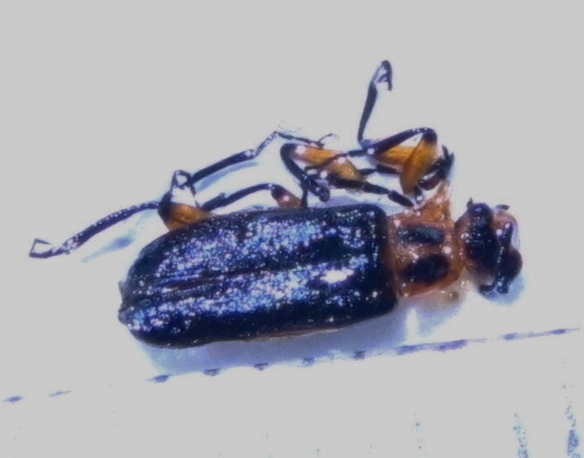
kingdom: Animalia
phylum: Arthropoda
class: Insecta
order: Coleoptera
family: Cantharidae
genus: Atalantycha
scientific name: Atalantycha bilineata
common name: Two-lined leatherwing
